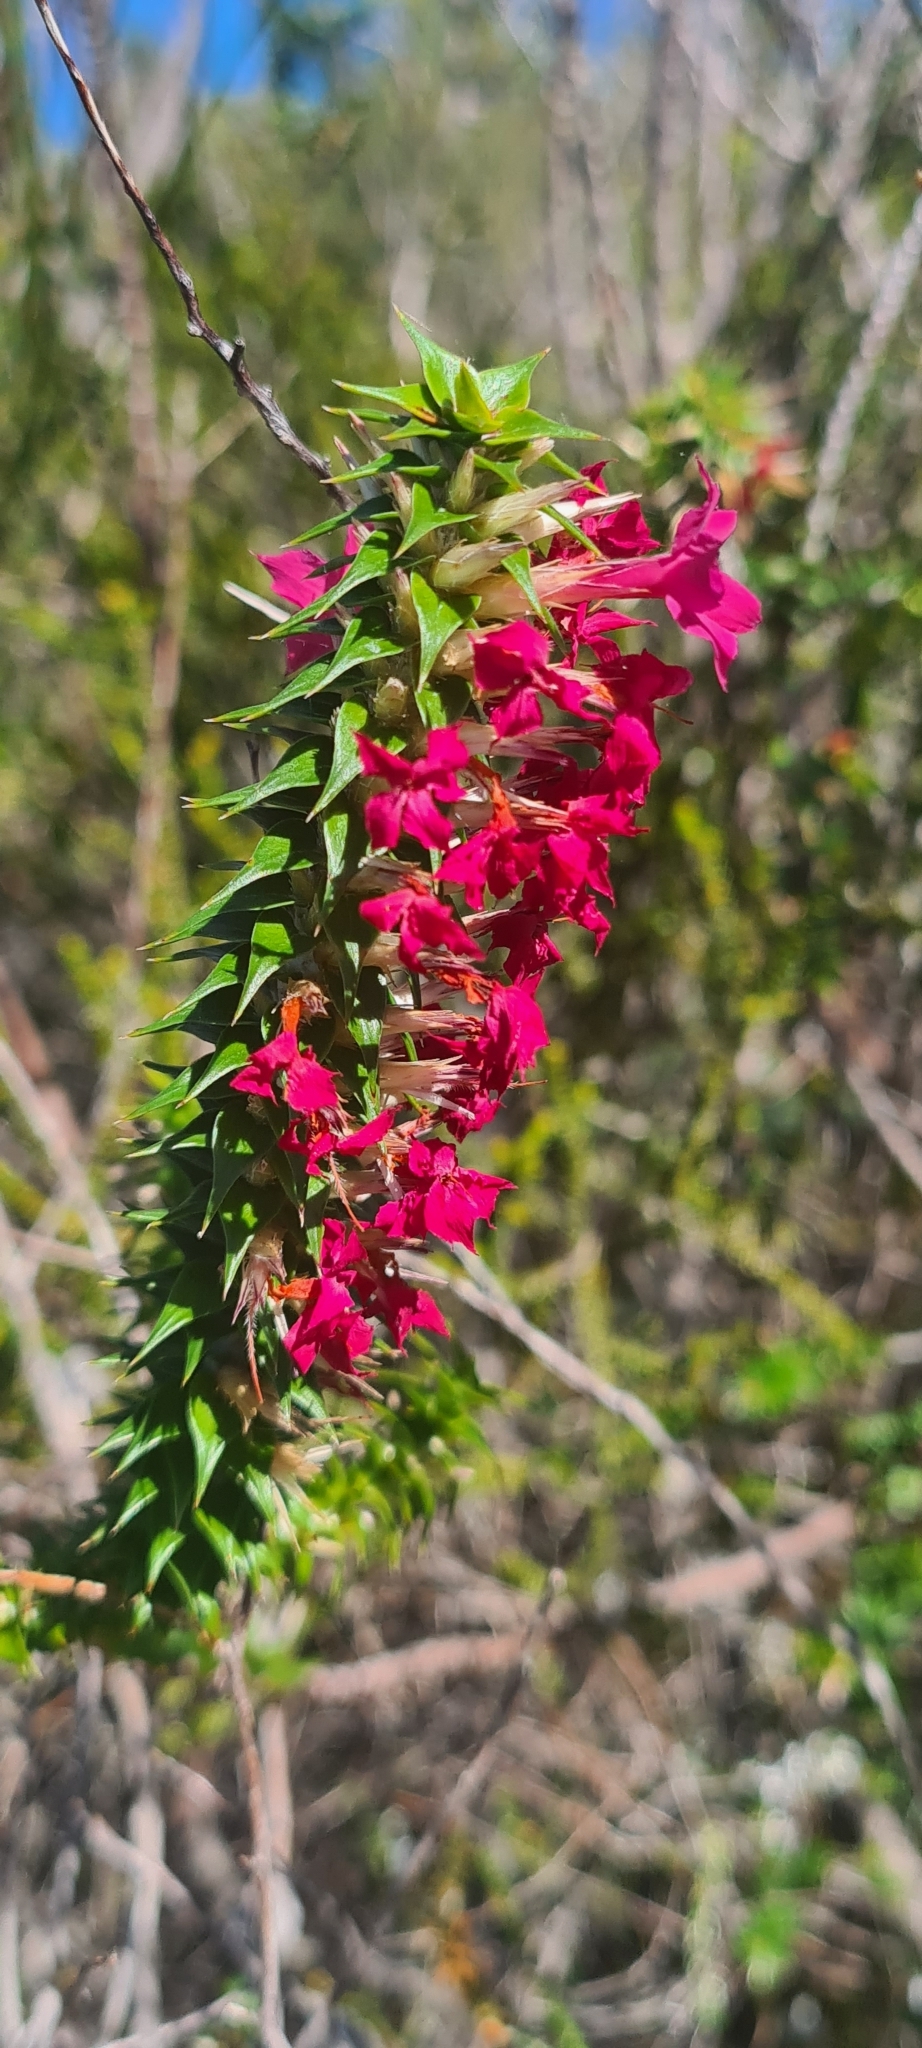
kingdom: Plantae
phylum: Tracheophyta
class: Magnoliopsida
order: Ericales
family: Ericaceae
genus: Woollsia
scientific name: Woollsia pungens
